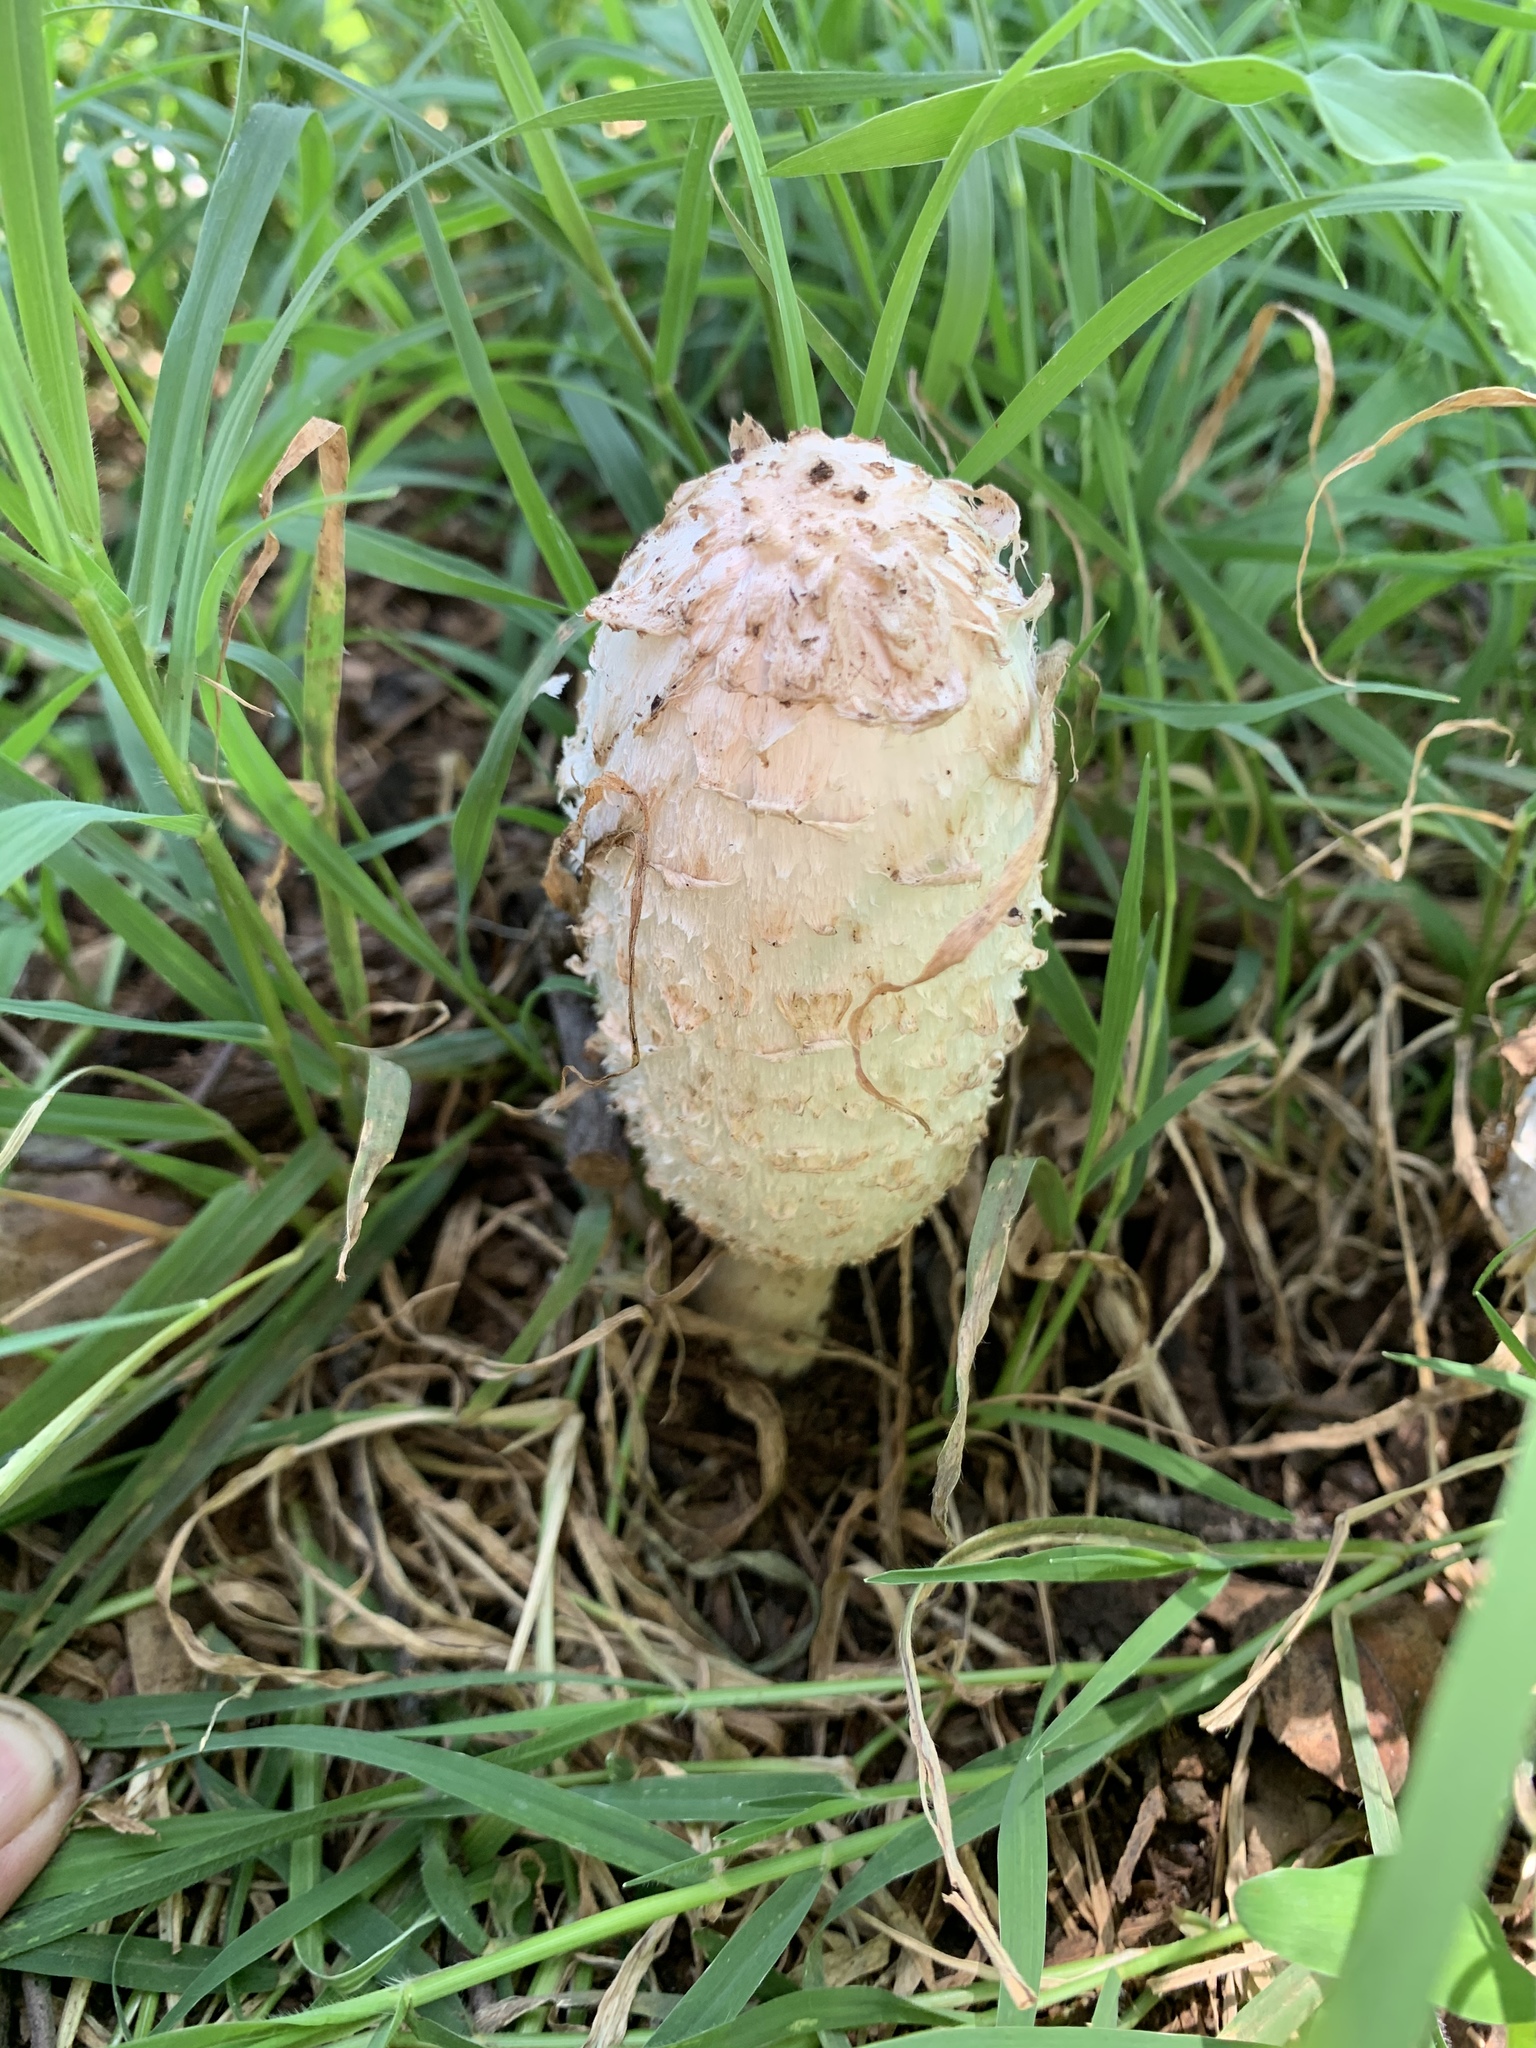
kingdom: Fungi
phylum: Basidiomycota
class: Agaricomycetes
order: Agaricales
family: Agaricaceae
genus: Coprinus
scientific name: Coprinus comatus
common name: Lawyer's wig
